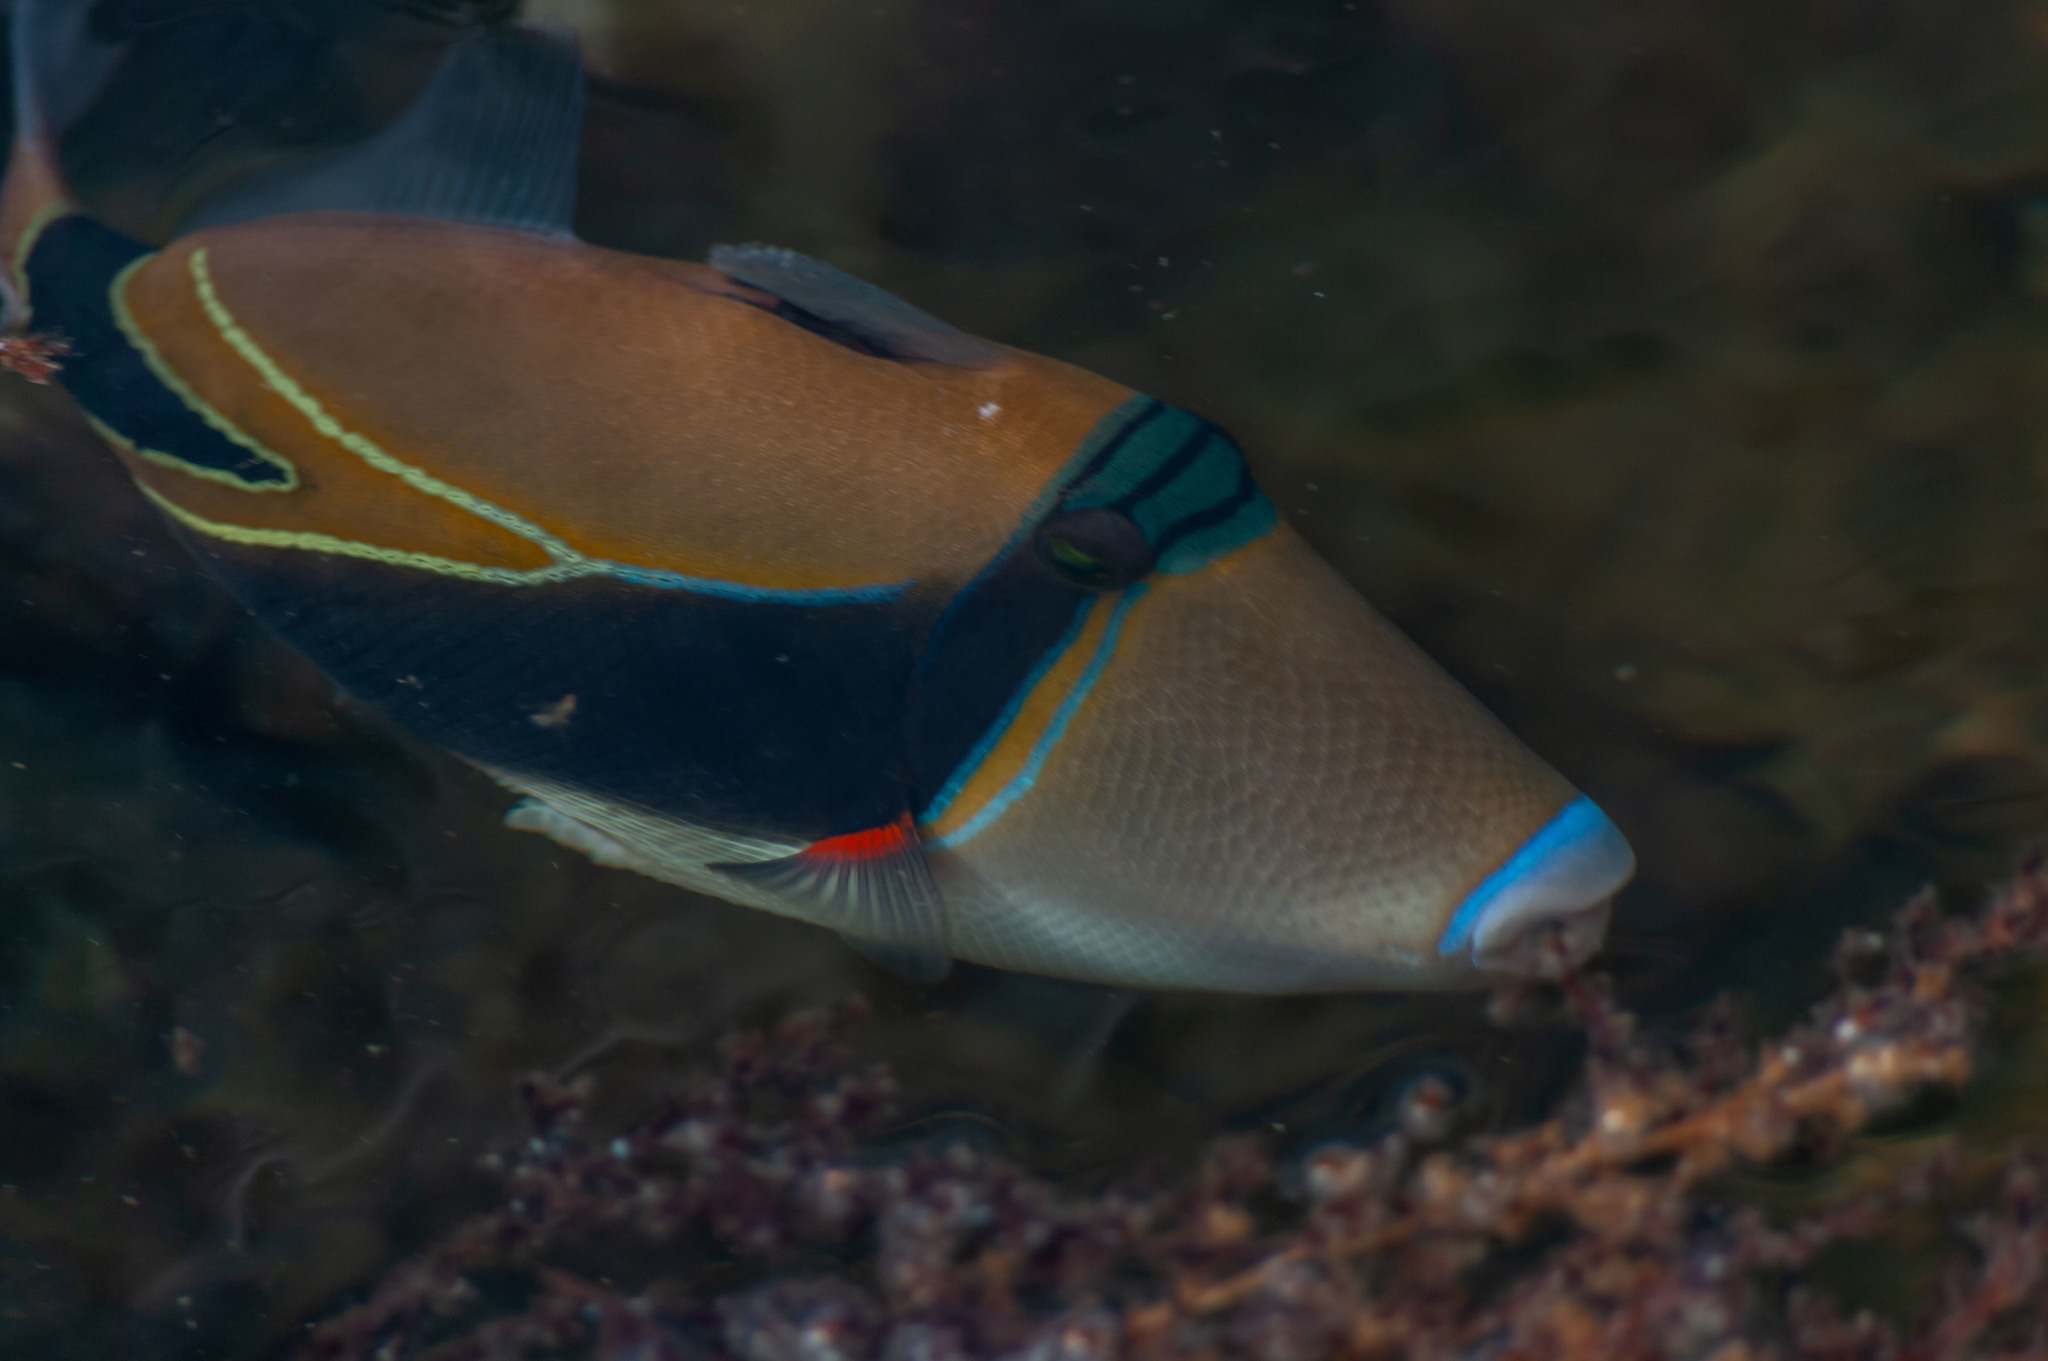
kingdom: Animalia
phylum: Chordata
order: Tetraodontiformes
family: Balistidae
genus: Rhinecanthus
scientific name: Rhinecanthus rectangulus
